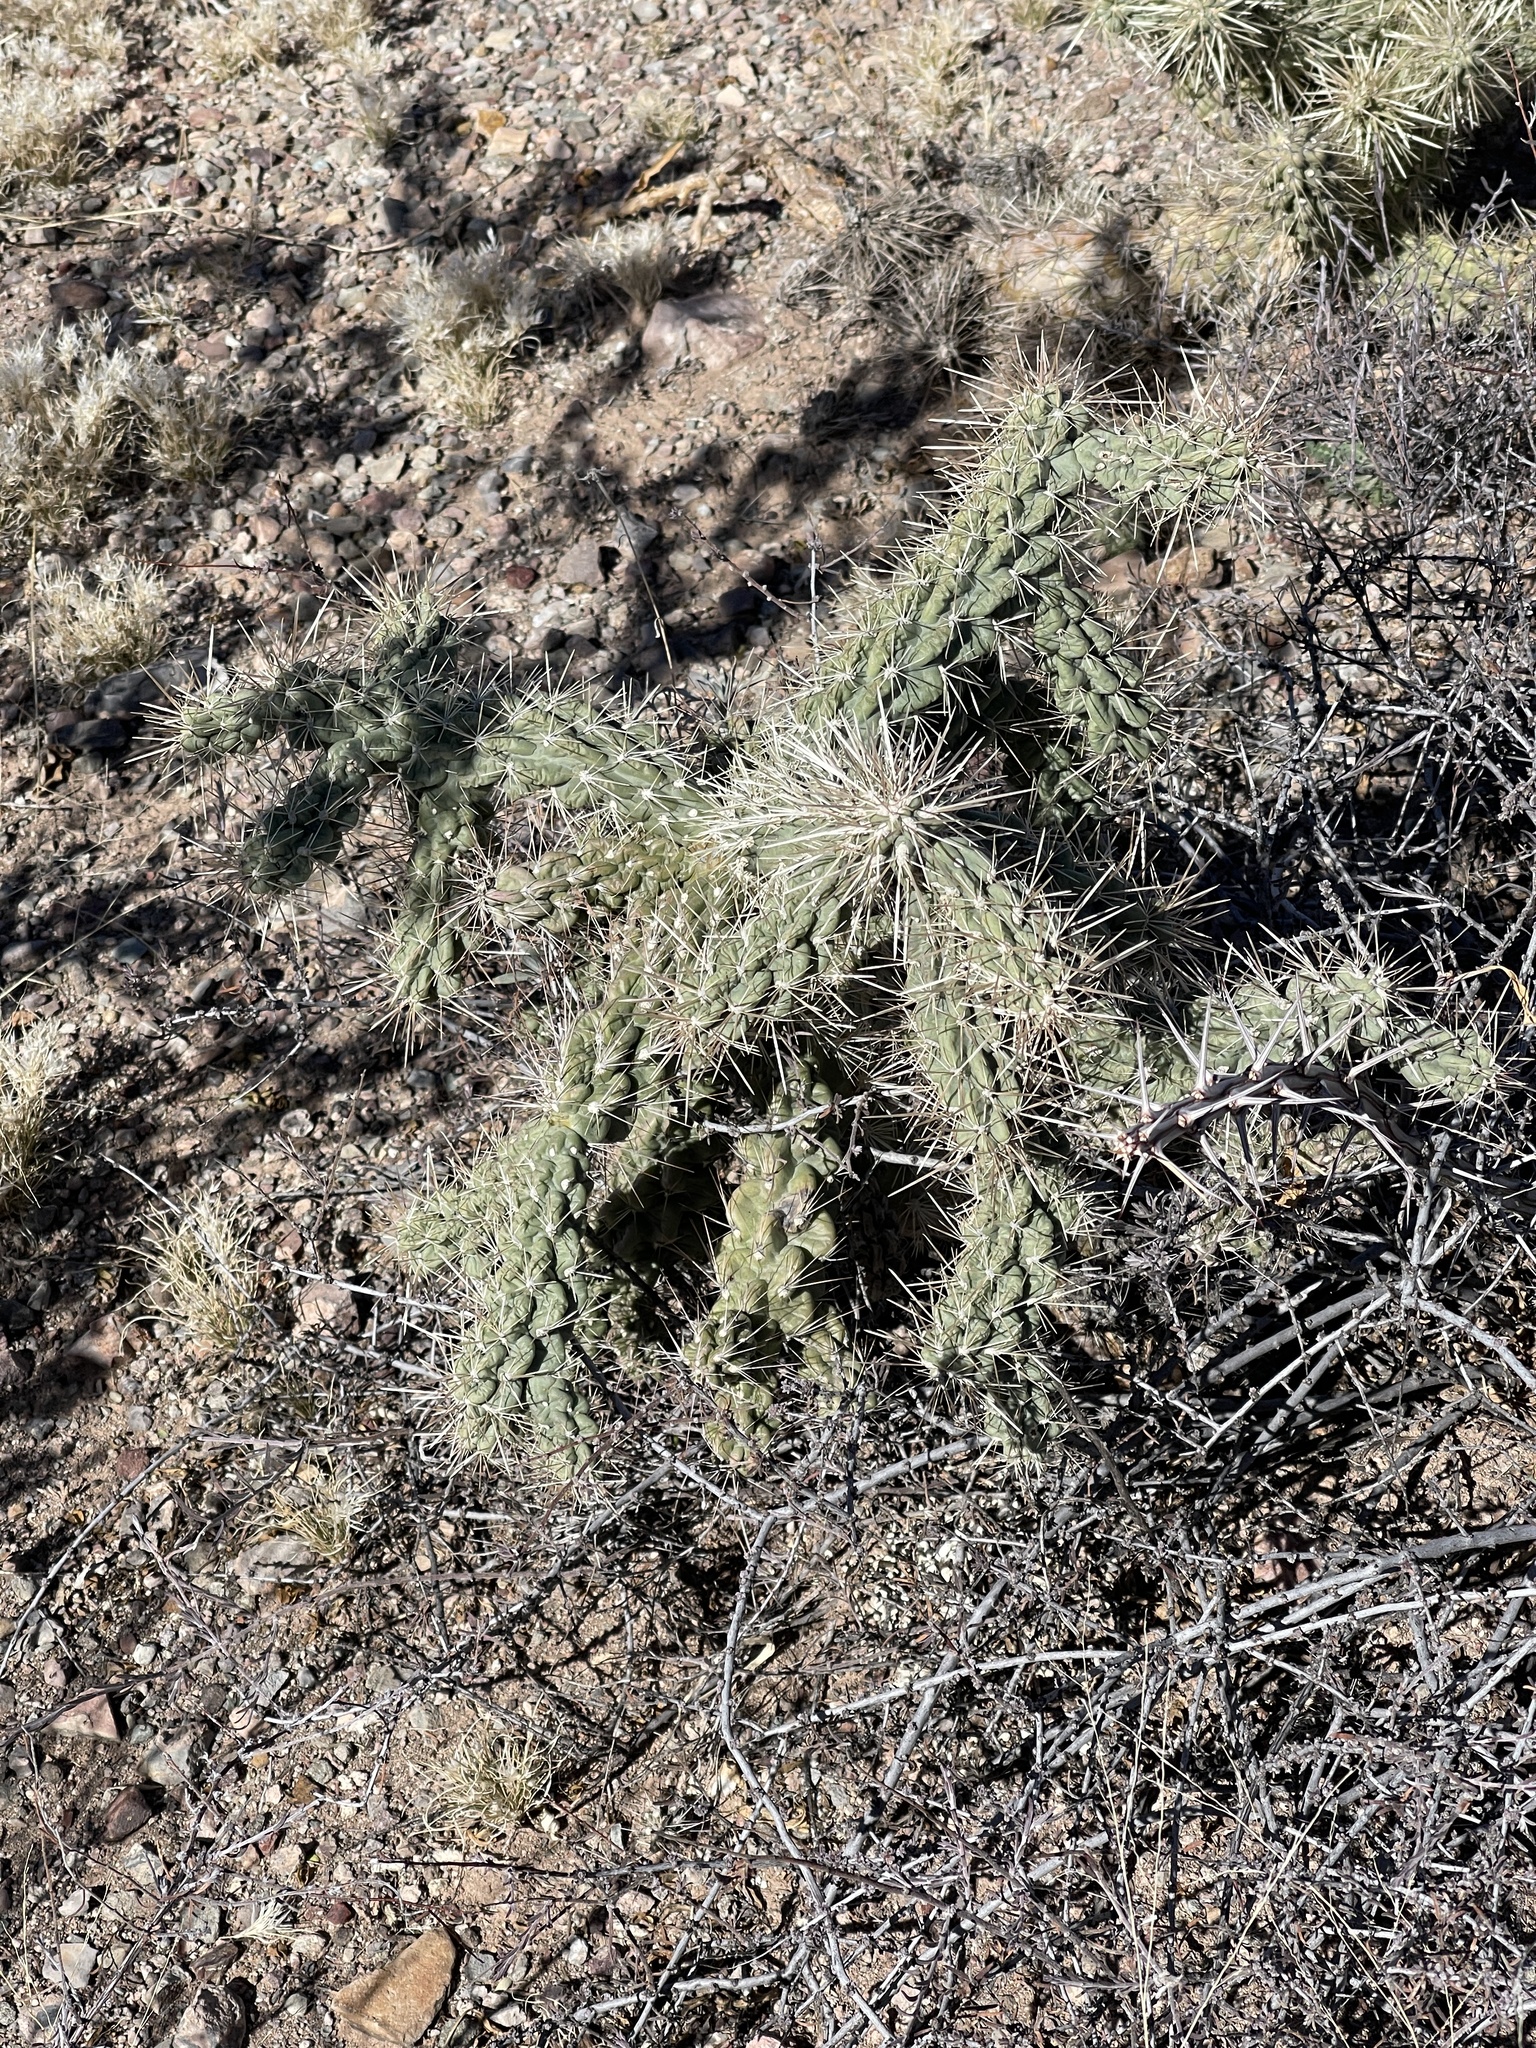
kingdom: Plantae
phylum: Tracheophyta
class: Magnoliopsida
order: Caryophyllales
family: Cactaceae
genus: Cylindropuntia
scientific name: Cylindropuntia fulgida
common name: Jumping cholla
